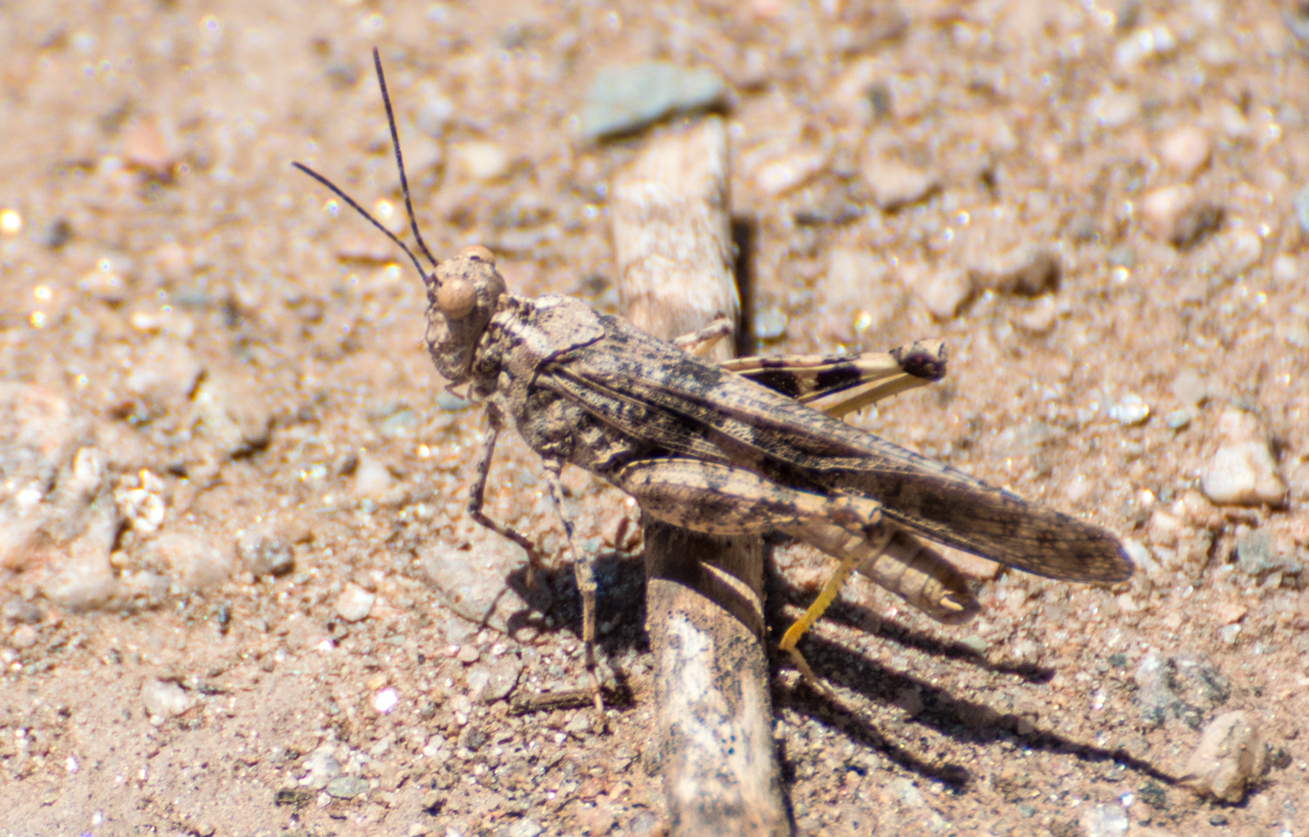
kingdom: Animalia
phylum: Arthropoda
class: Insecta
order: Orthoptera
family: Acrididae
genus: Trimerotropis
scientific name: Trimerotropis pallidipennis
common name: Pallid-winged grasshopper
